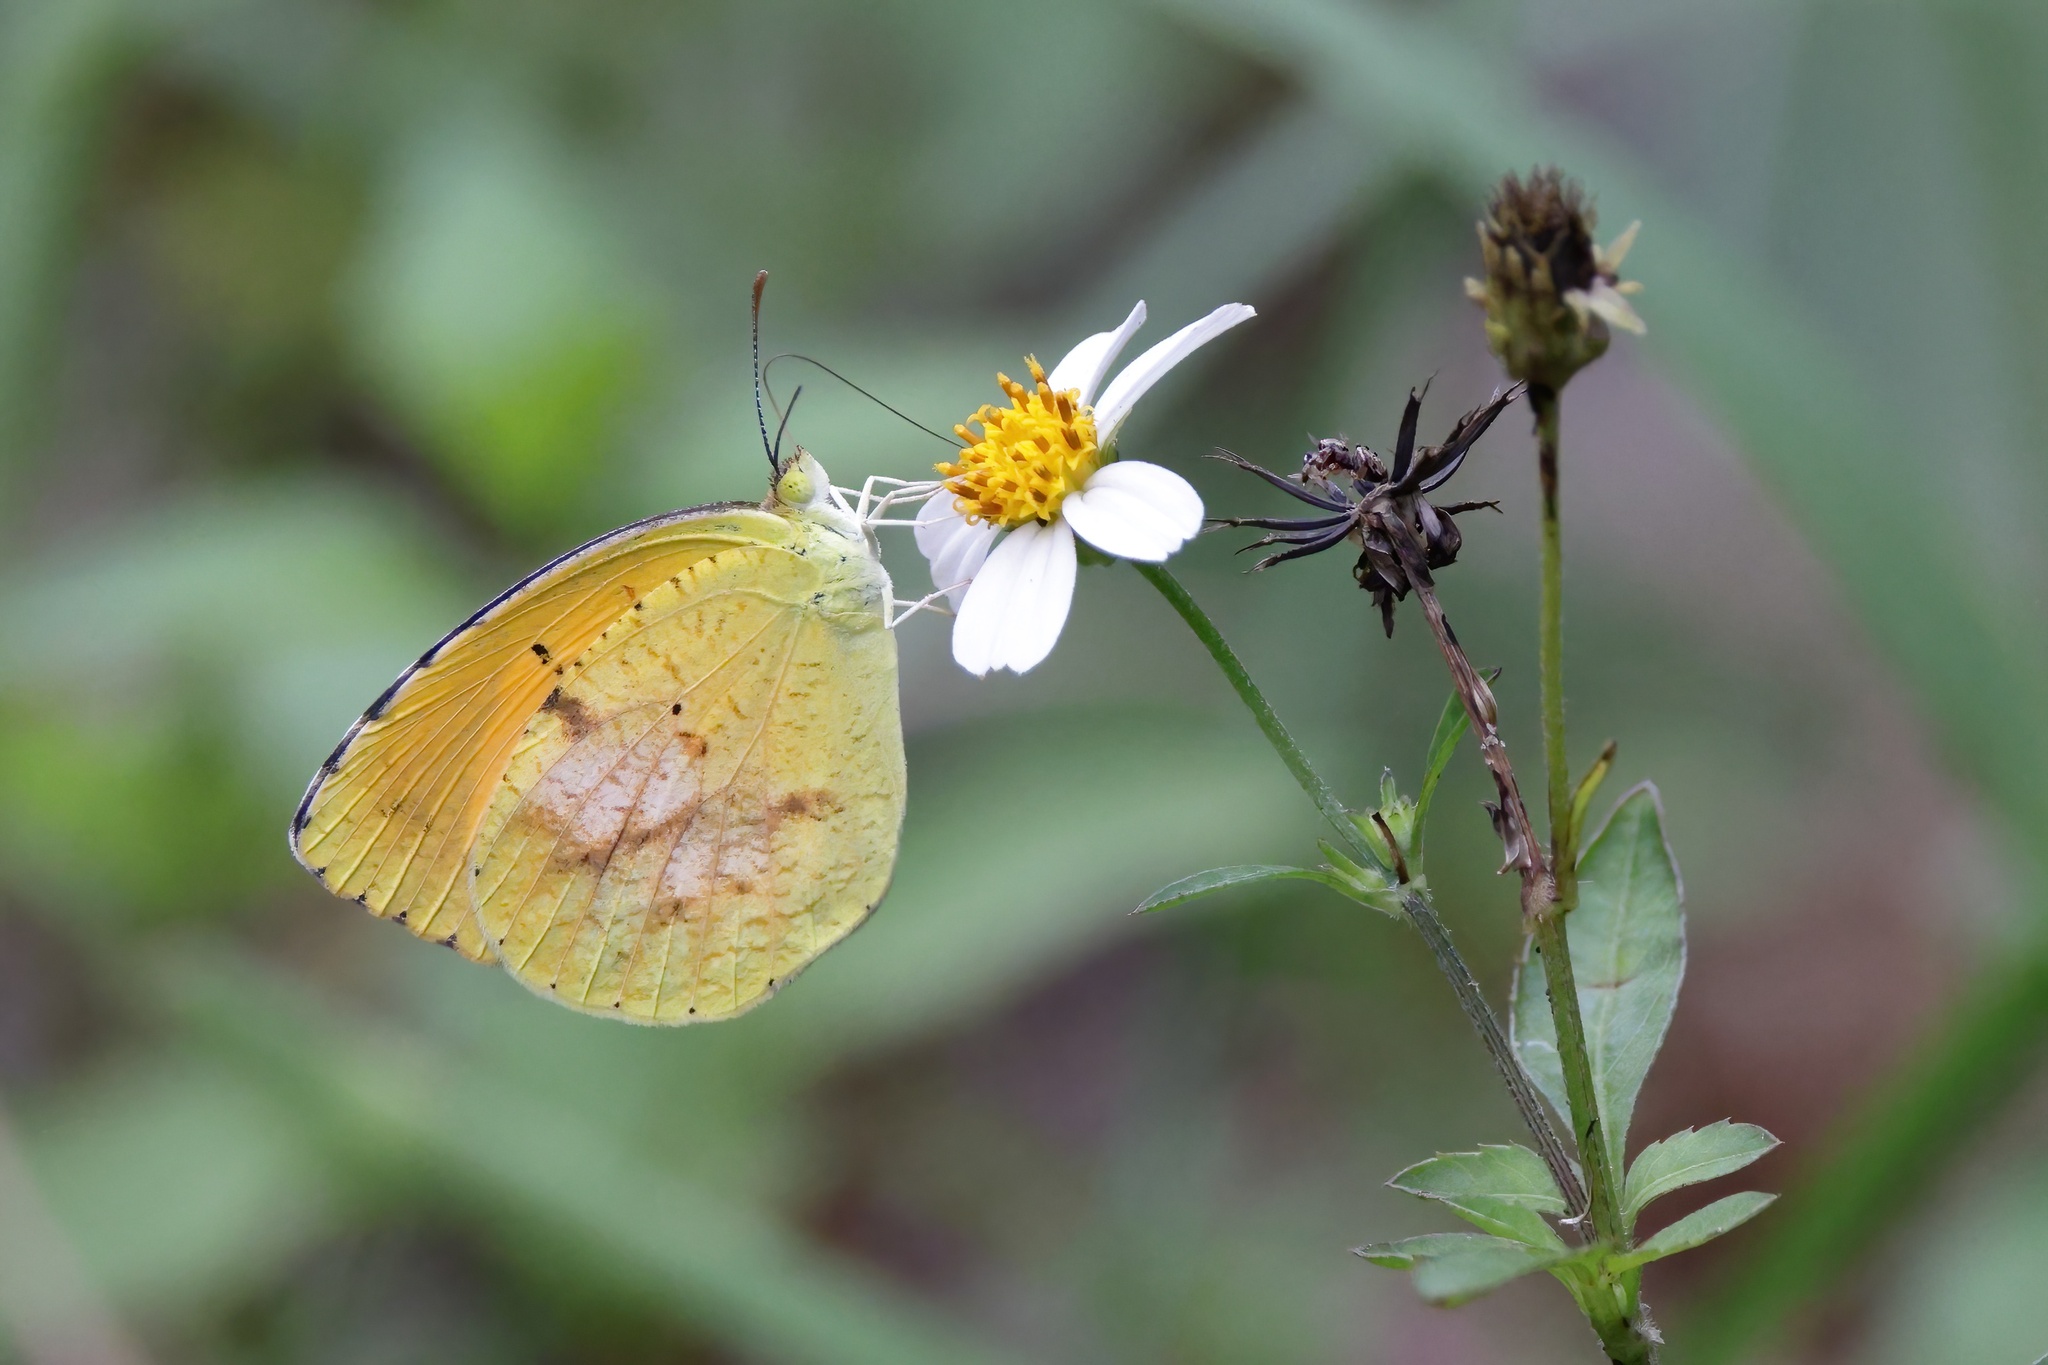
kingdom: Animalia
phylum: Arthropoda
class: Insecta
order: Lepidoptera
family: Pieridae
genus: Abaeis
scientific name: Abaeis nicippe
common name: Sleepy orange
